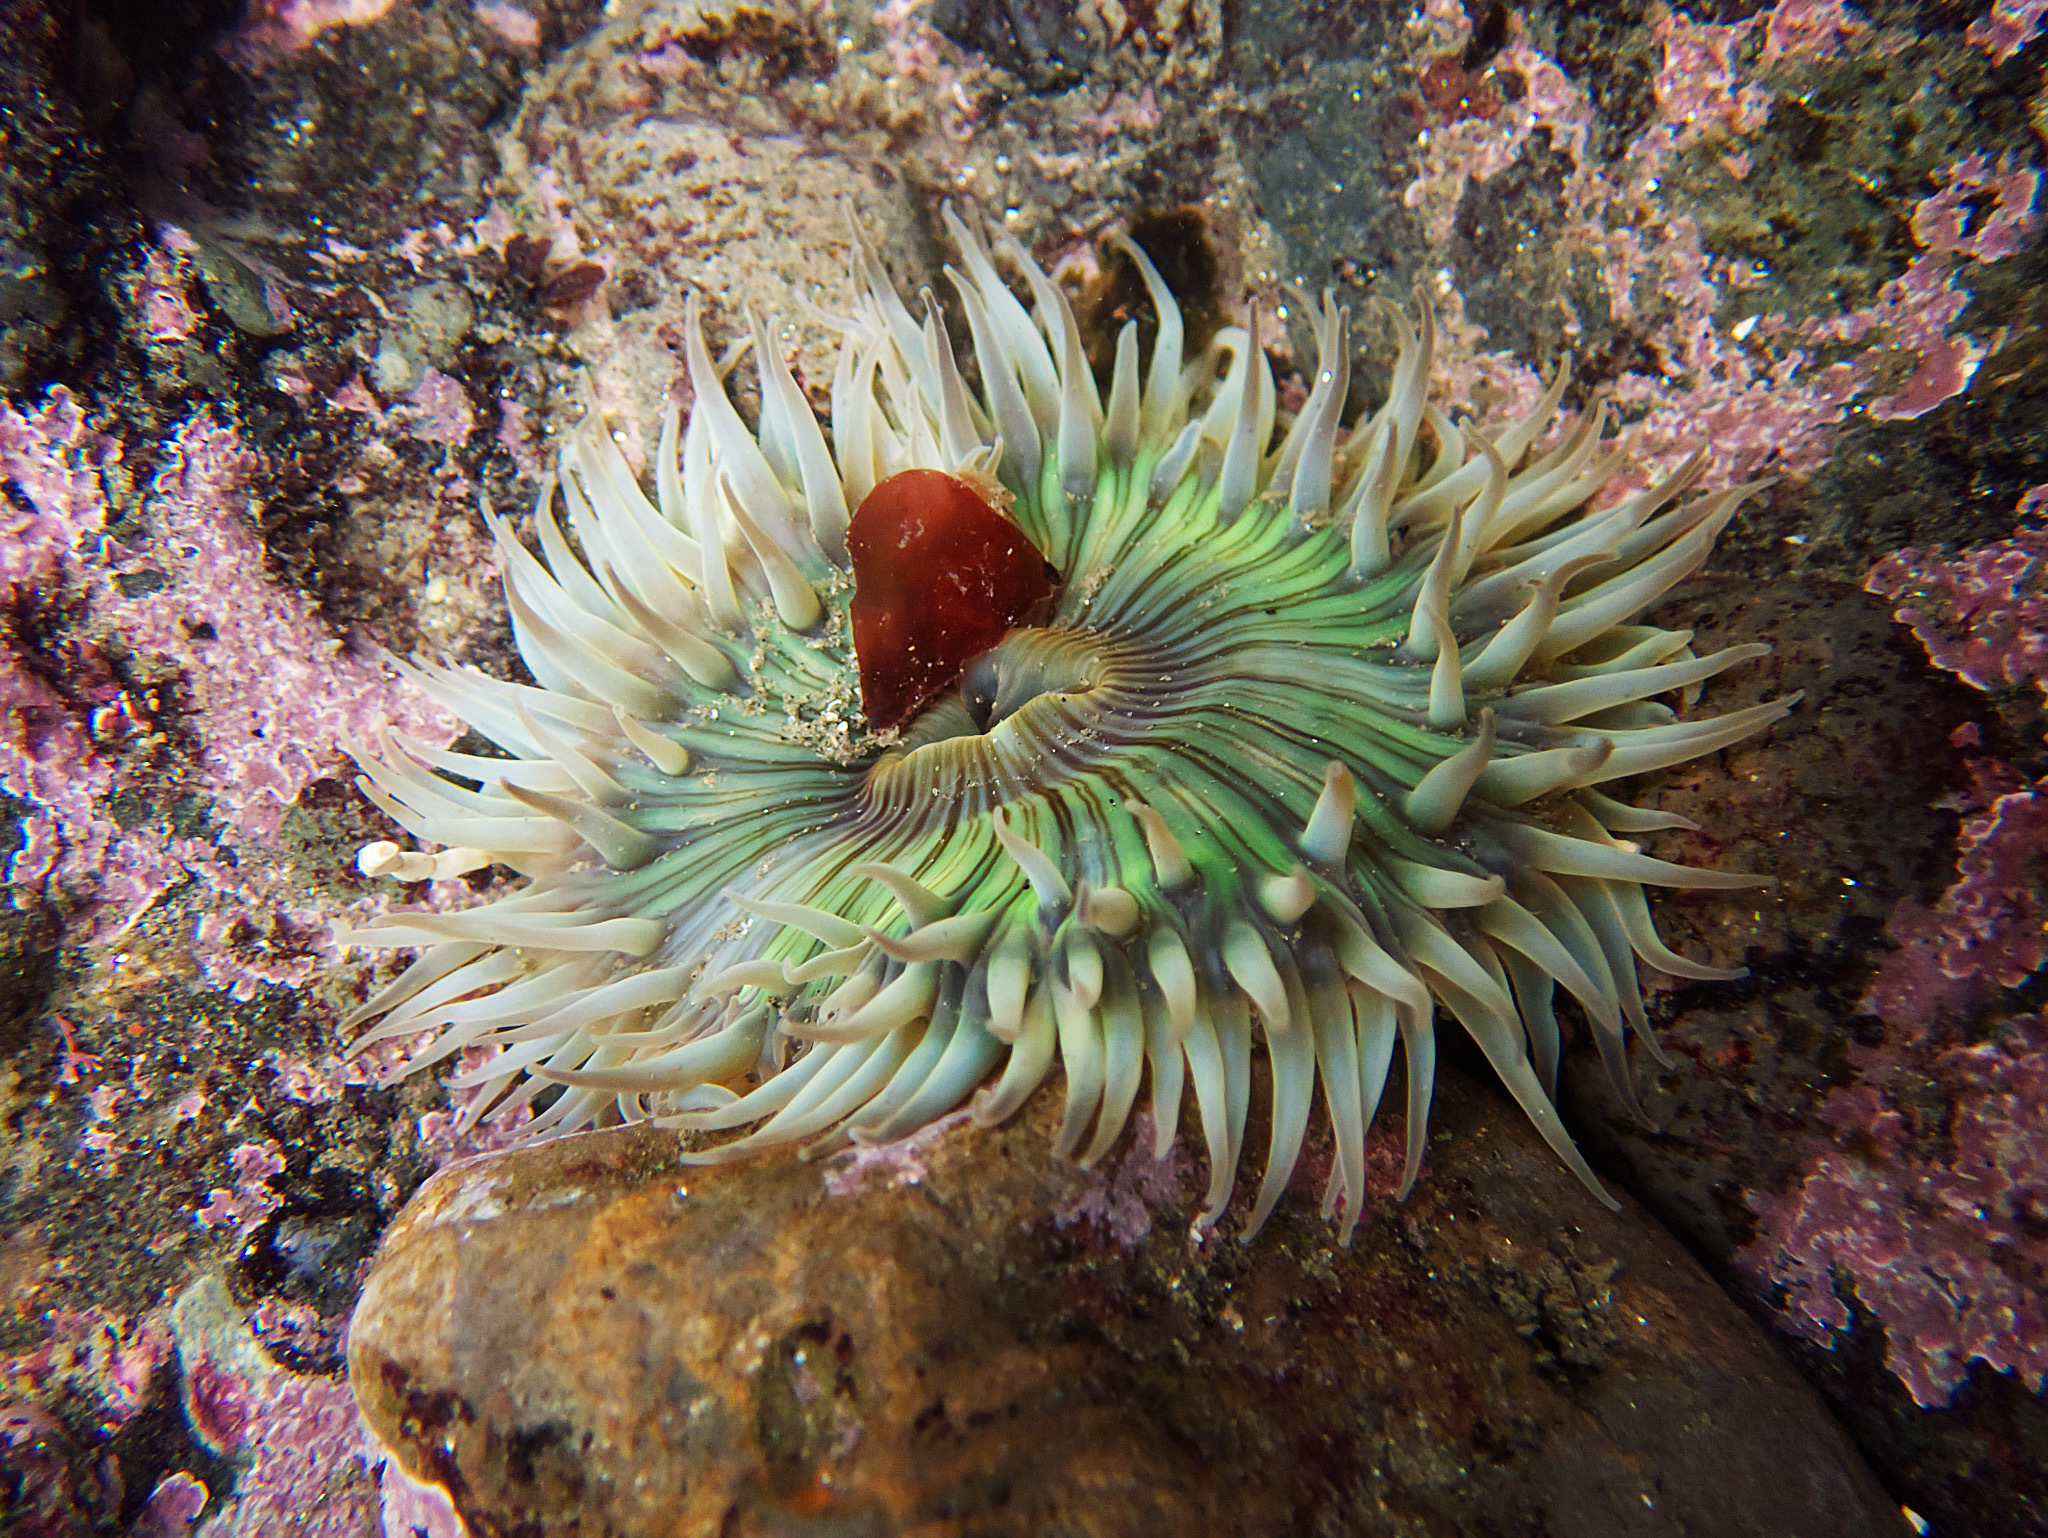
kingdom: Animalia
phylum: Cnidaria
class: Anthozoa
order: Actiniaria
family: Actiniidae
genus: Anthopleura
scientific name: Anthopleura sola
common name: Sun anemone
